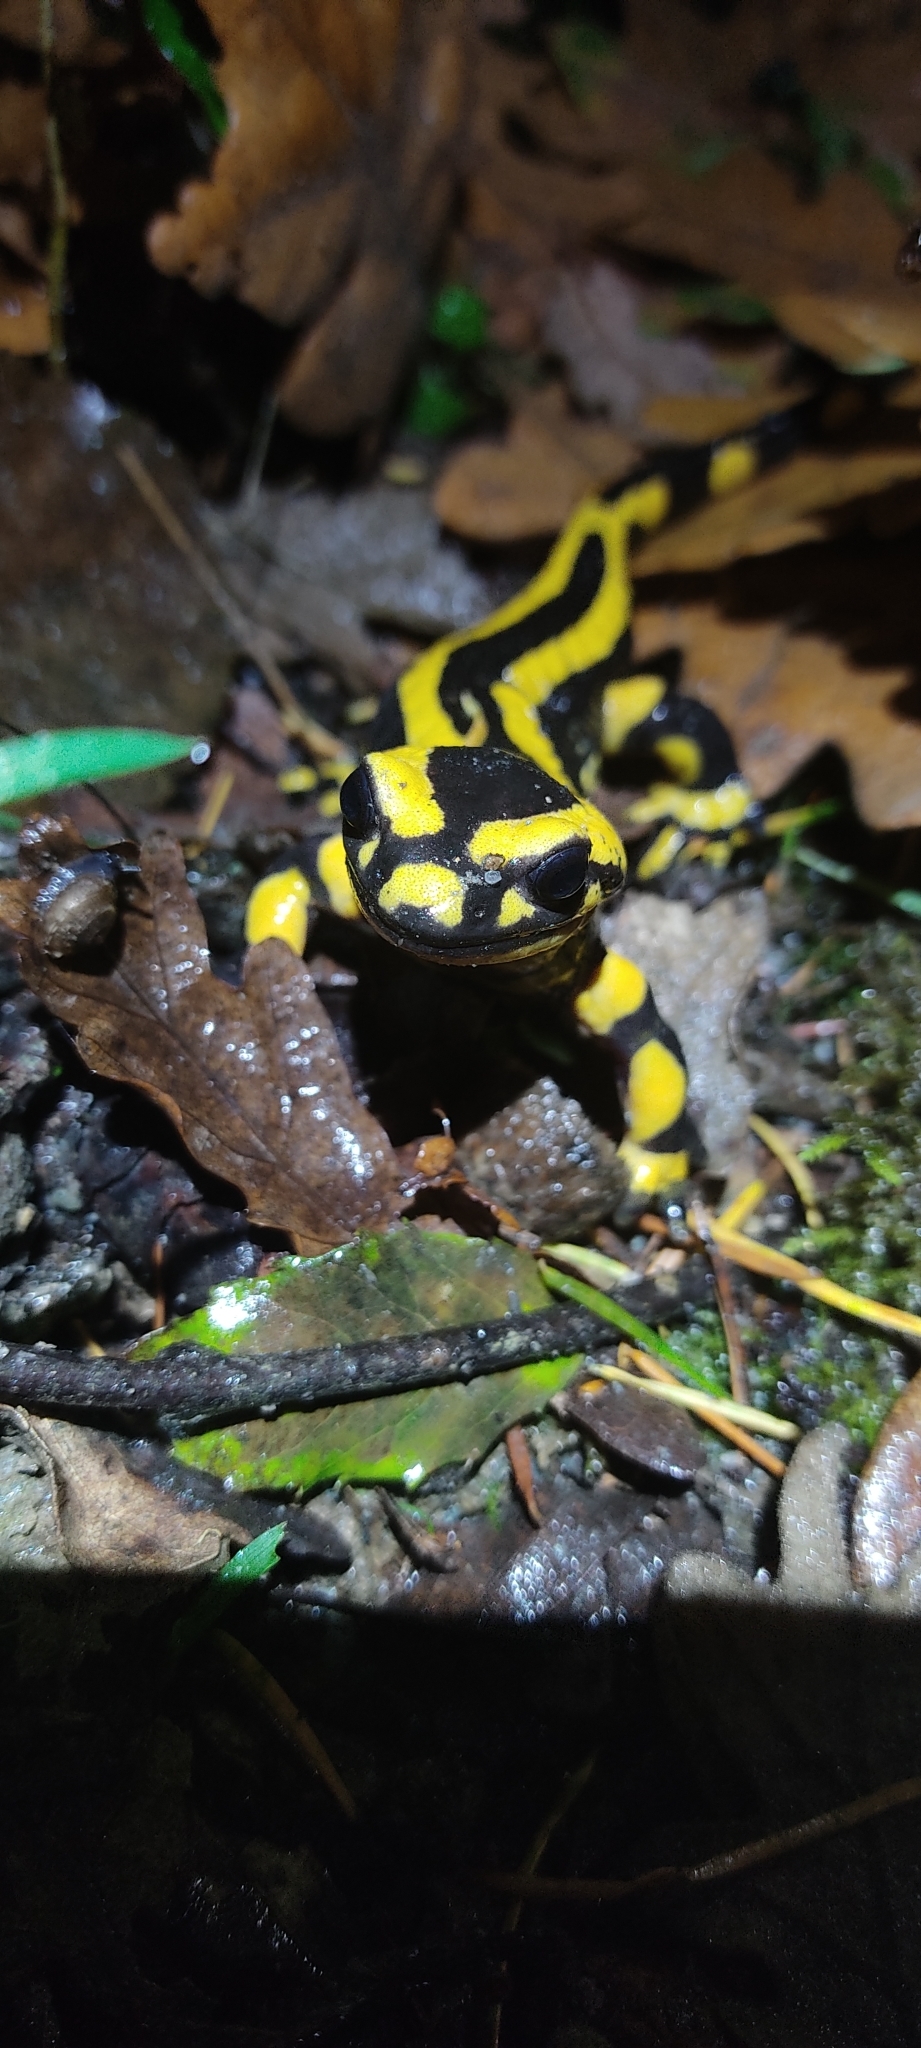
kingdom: Animalia
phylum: Chordata
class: Amphibia
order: Caudata
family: Salamandridae
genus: Salamandra
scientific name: Salamandra salamandra
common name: Fire salamander
